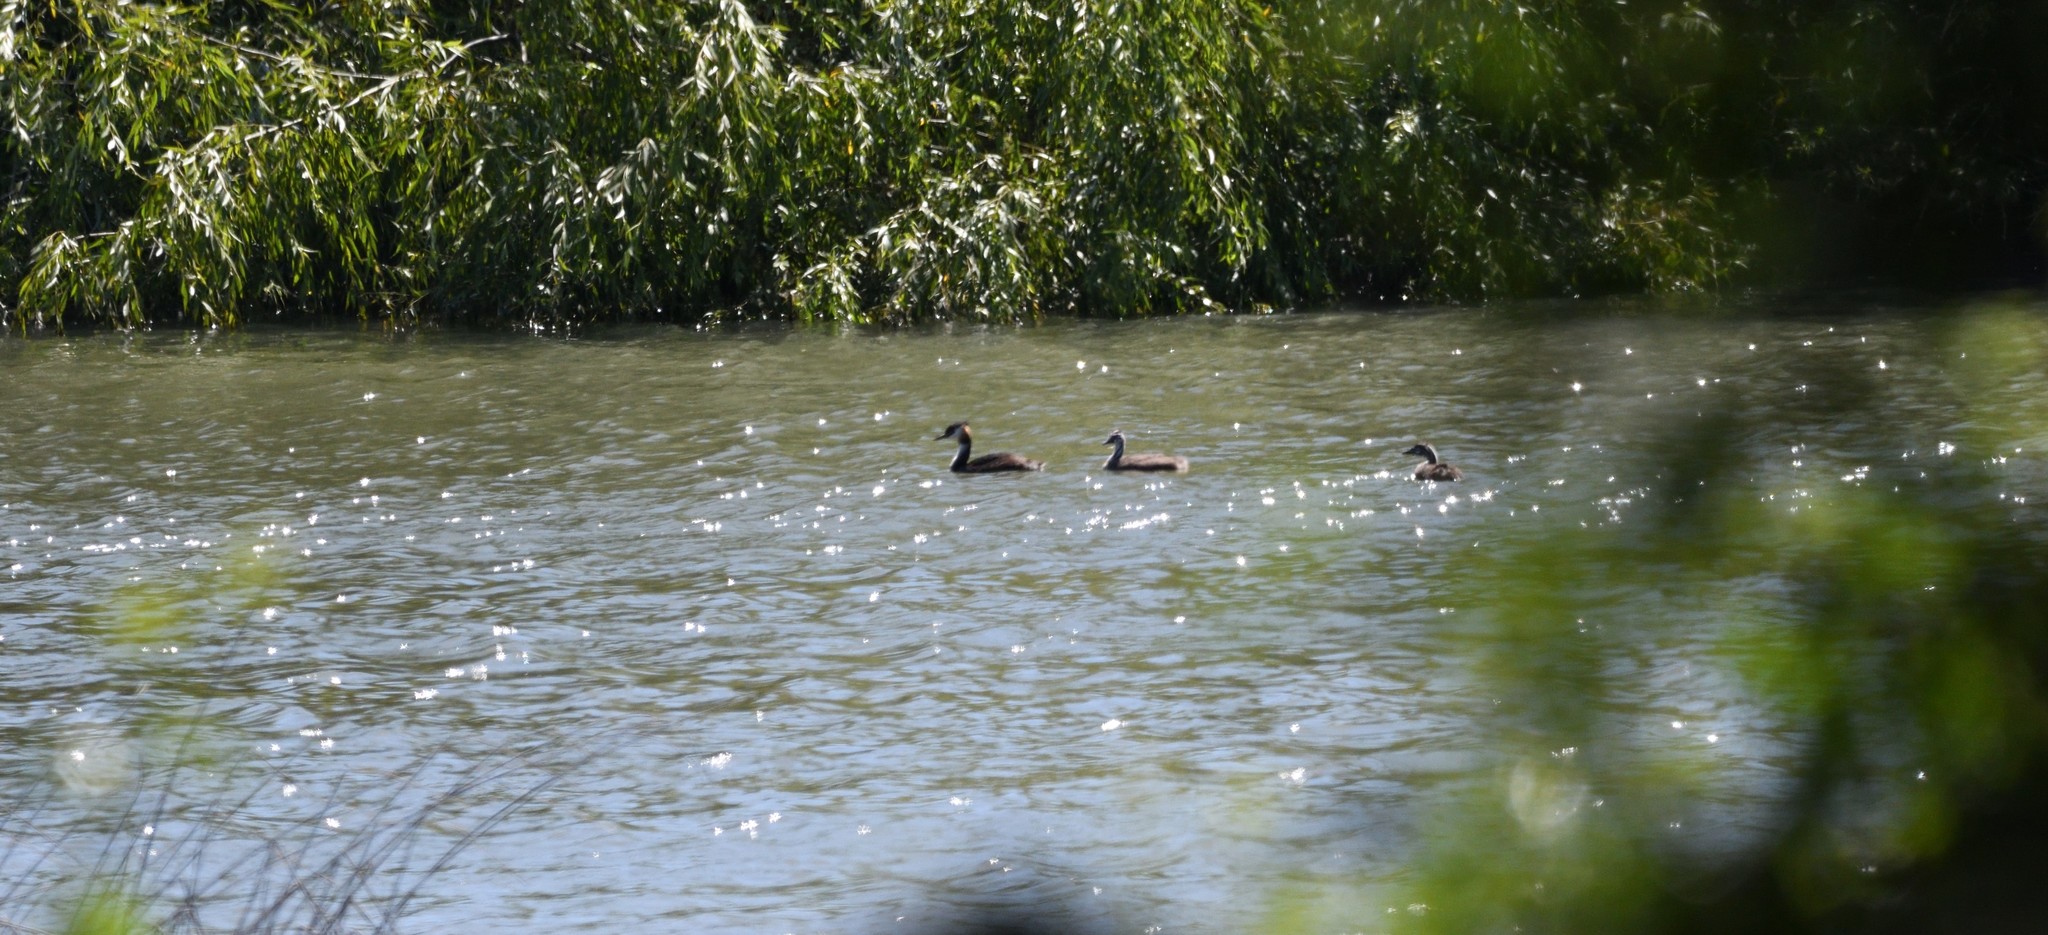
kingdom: Animalia
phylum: Chordata
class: Aves
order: Podicipediformes
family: Podicipedidae
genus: Podiceps
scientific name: Podiceps cristatus
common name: Great crested grebe
